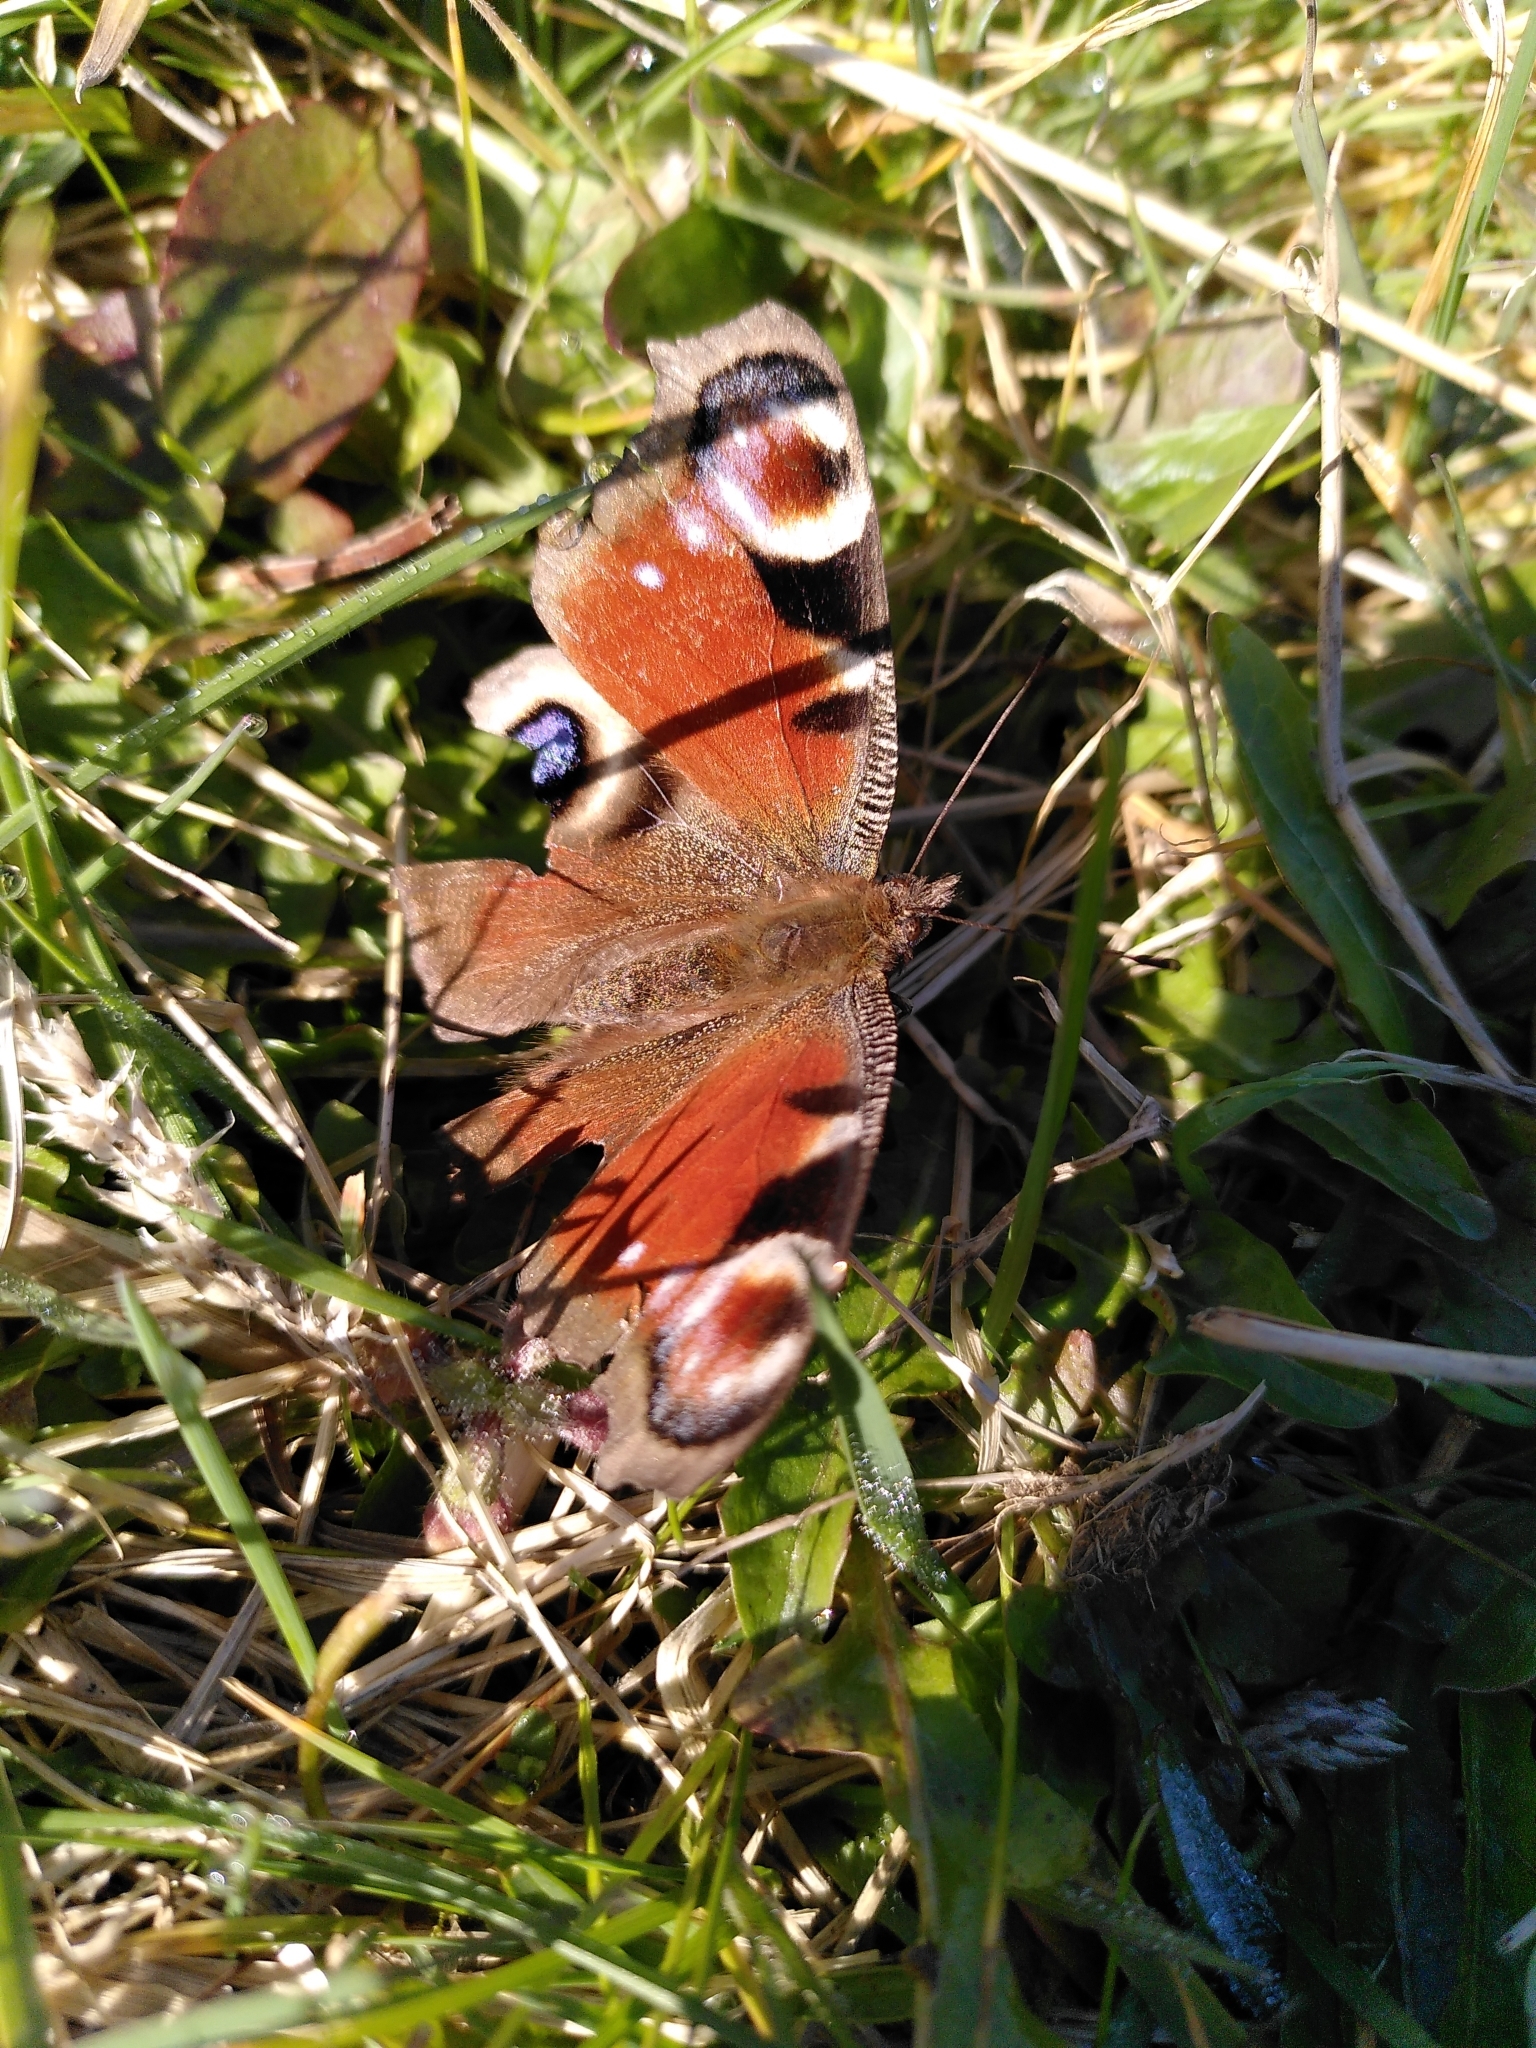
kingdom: Animalia
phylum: Arthropoda
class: Insecta
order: Lepidoptera
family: Nymphalidae
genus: Aglais
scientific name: Aglais io
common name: Peacock
